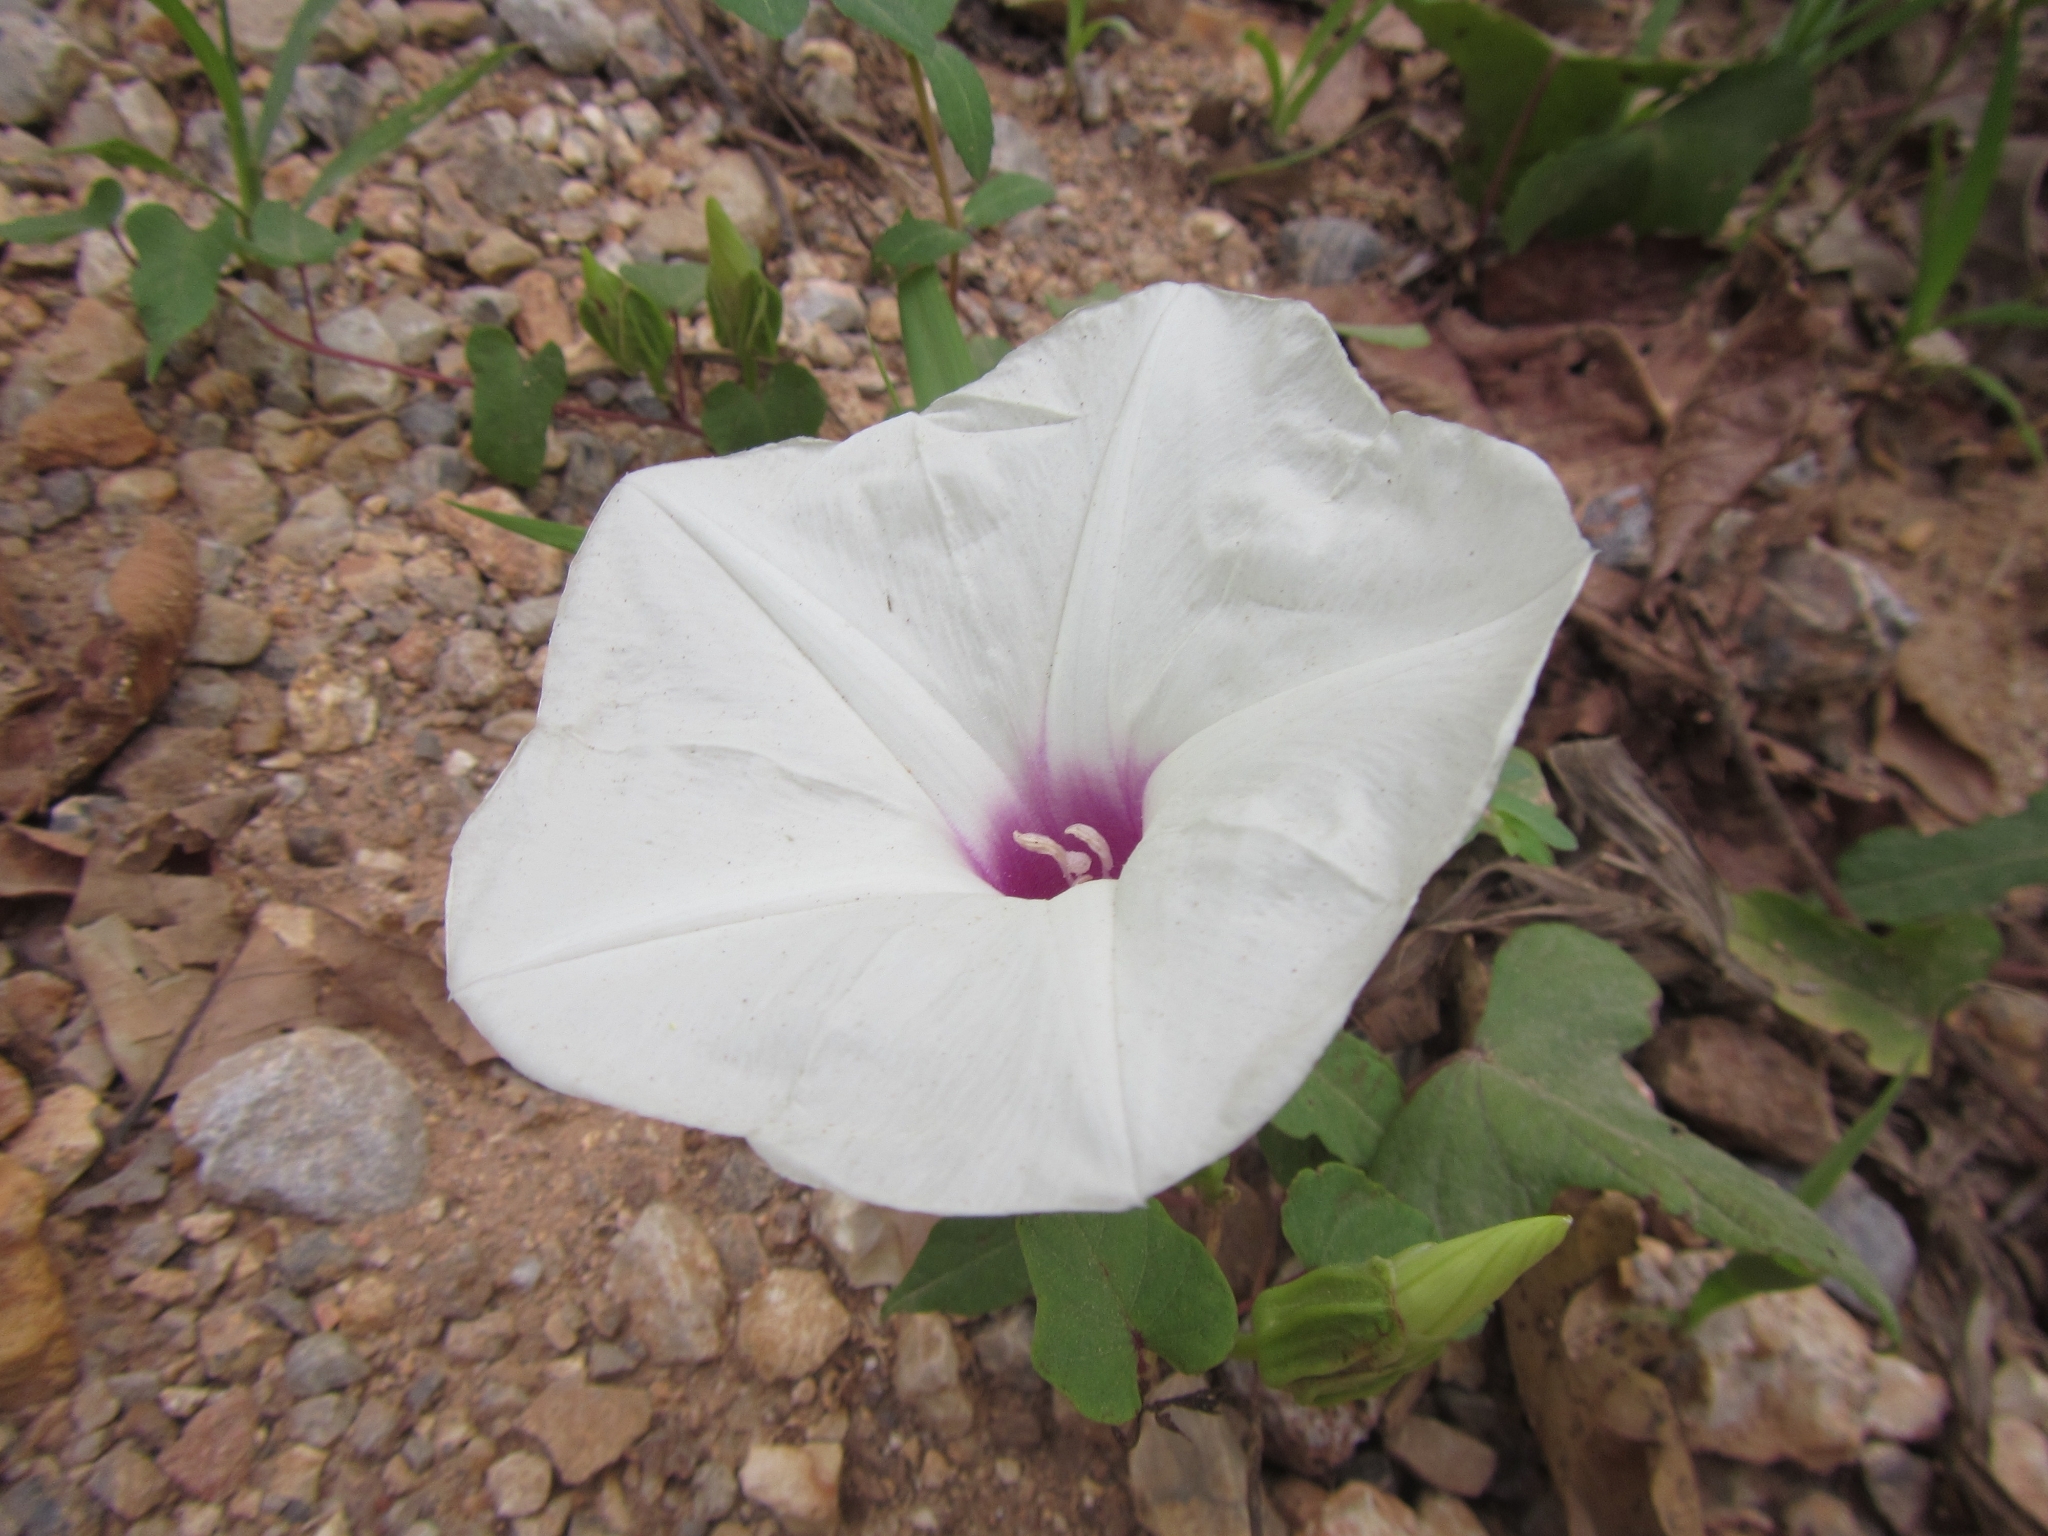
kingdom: Plantae
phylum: Tracheophyta
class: Magnoliopsida
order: Solanales
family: Convolvulaceae
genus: Ipomoea
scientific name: Ipomoea pandurata
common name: Man-of-the-earth
